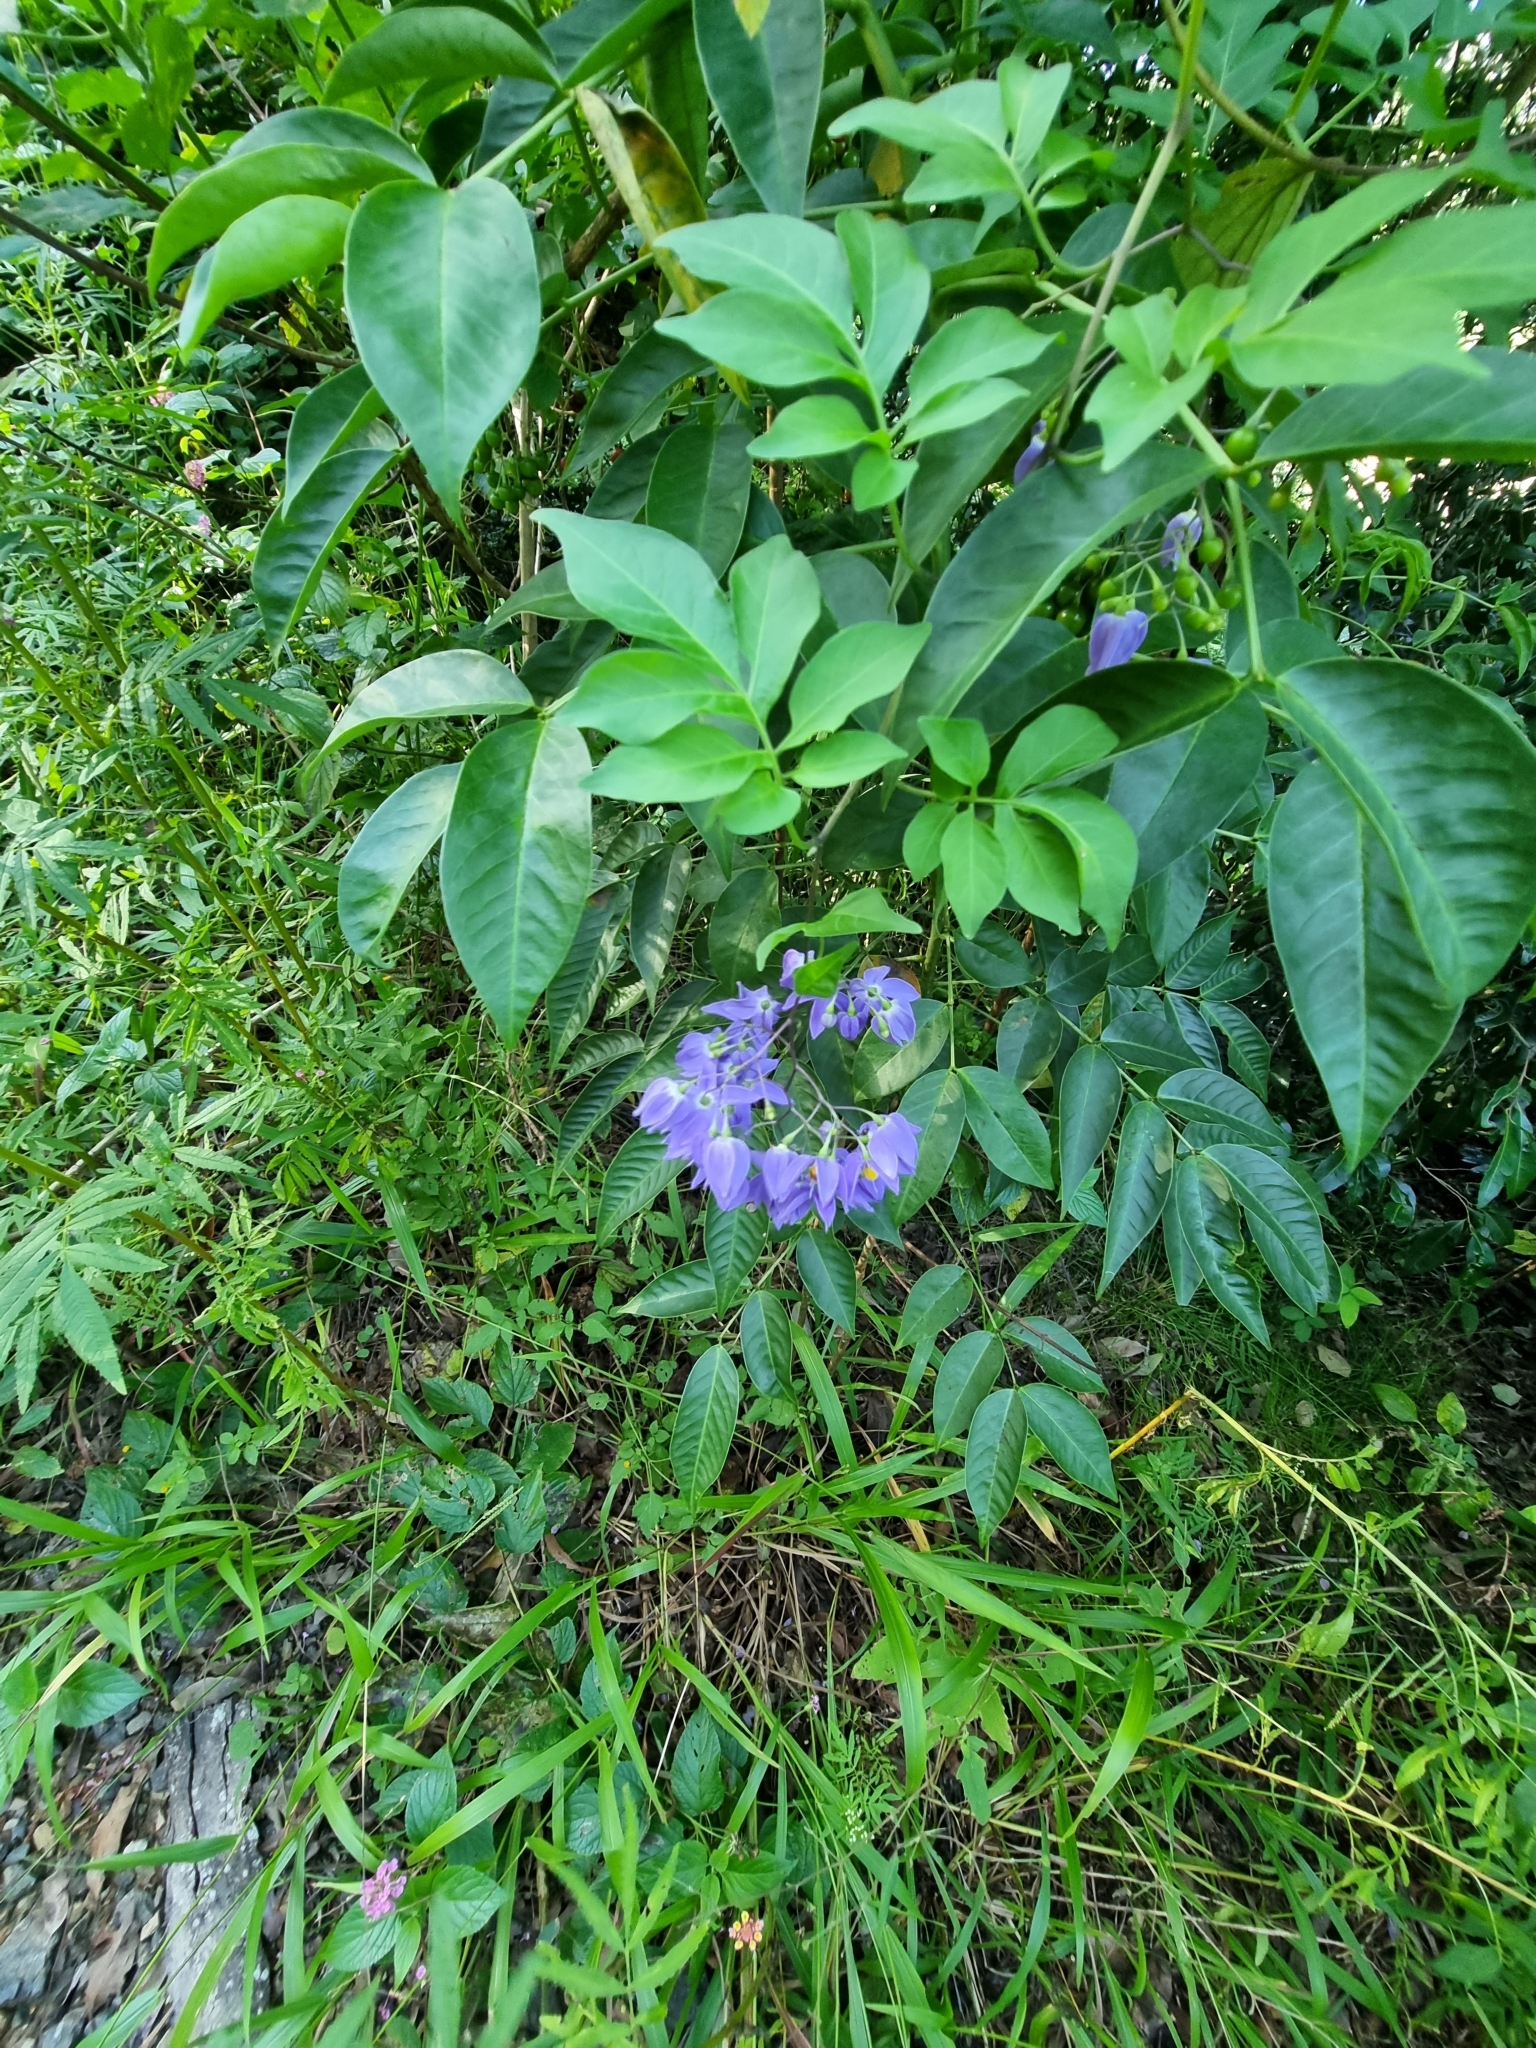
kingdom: Plantae
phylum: Tracheophyta
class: Magnoliopsida
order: Solanales
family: Solanaceae
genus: Solanum
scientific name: Solanum seaforthianum
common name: Brazilian nightshade
